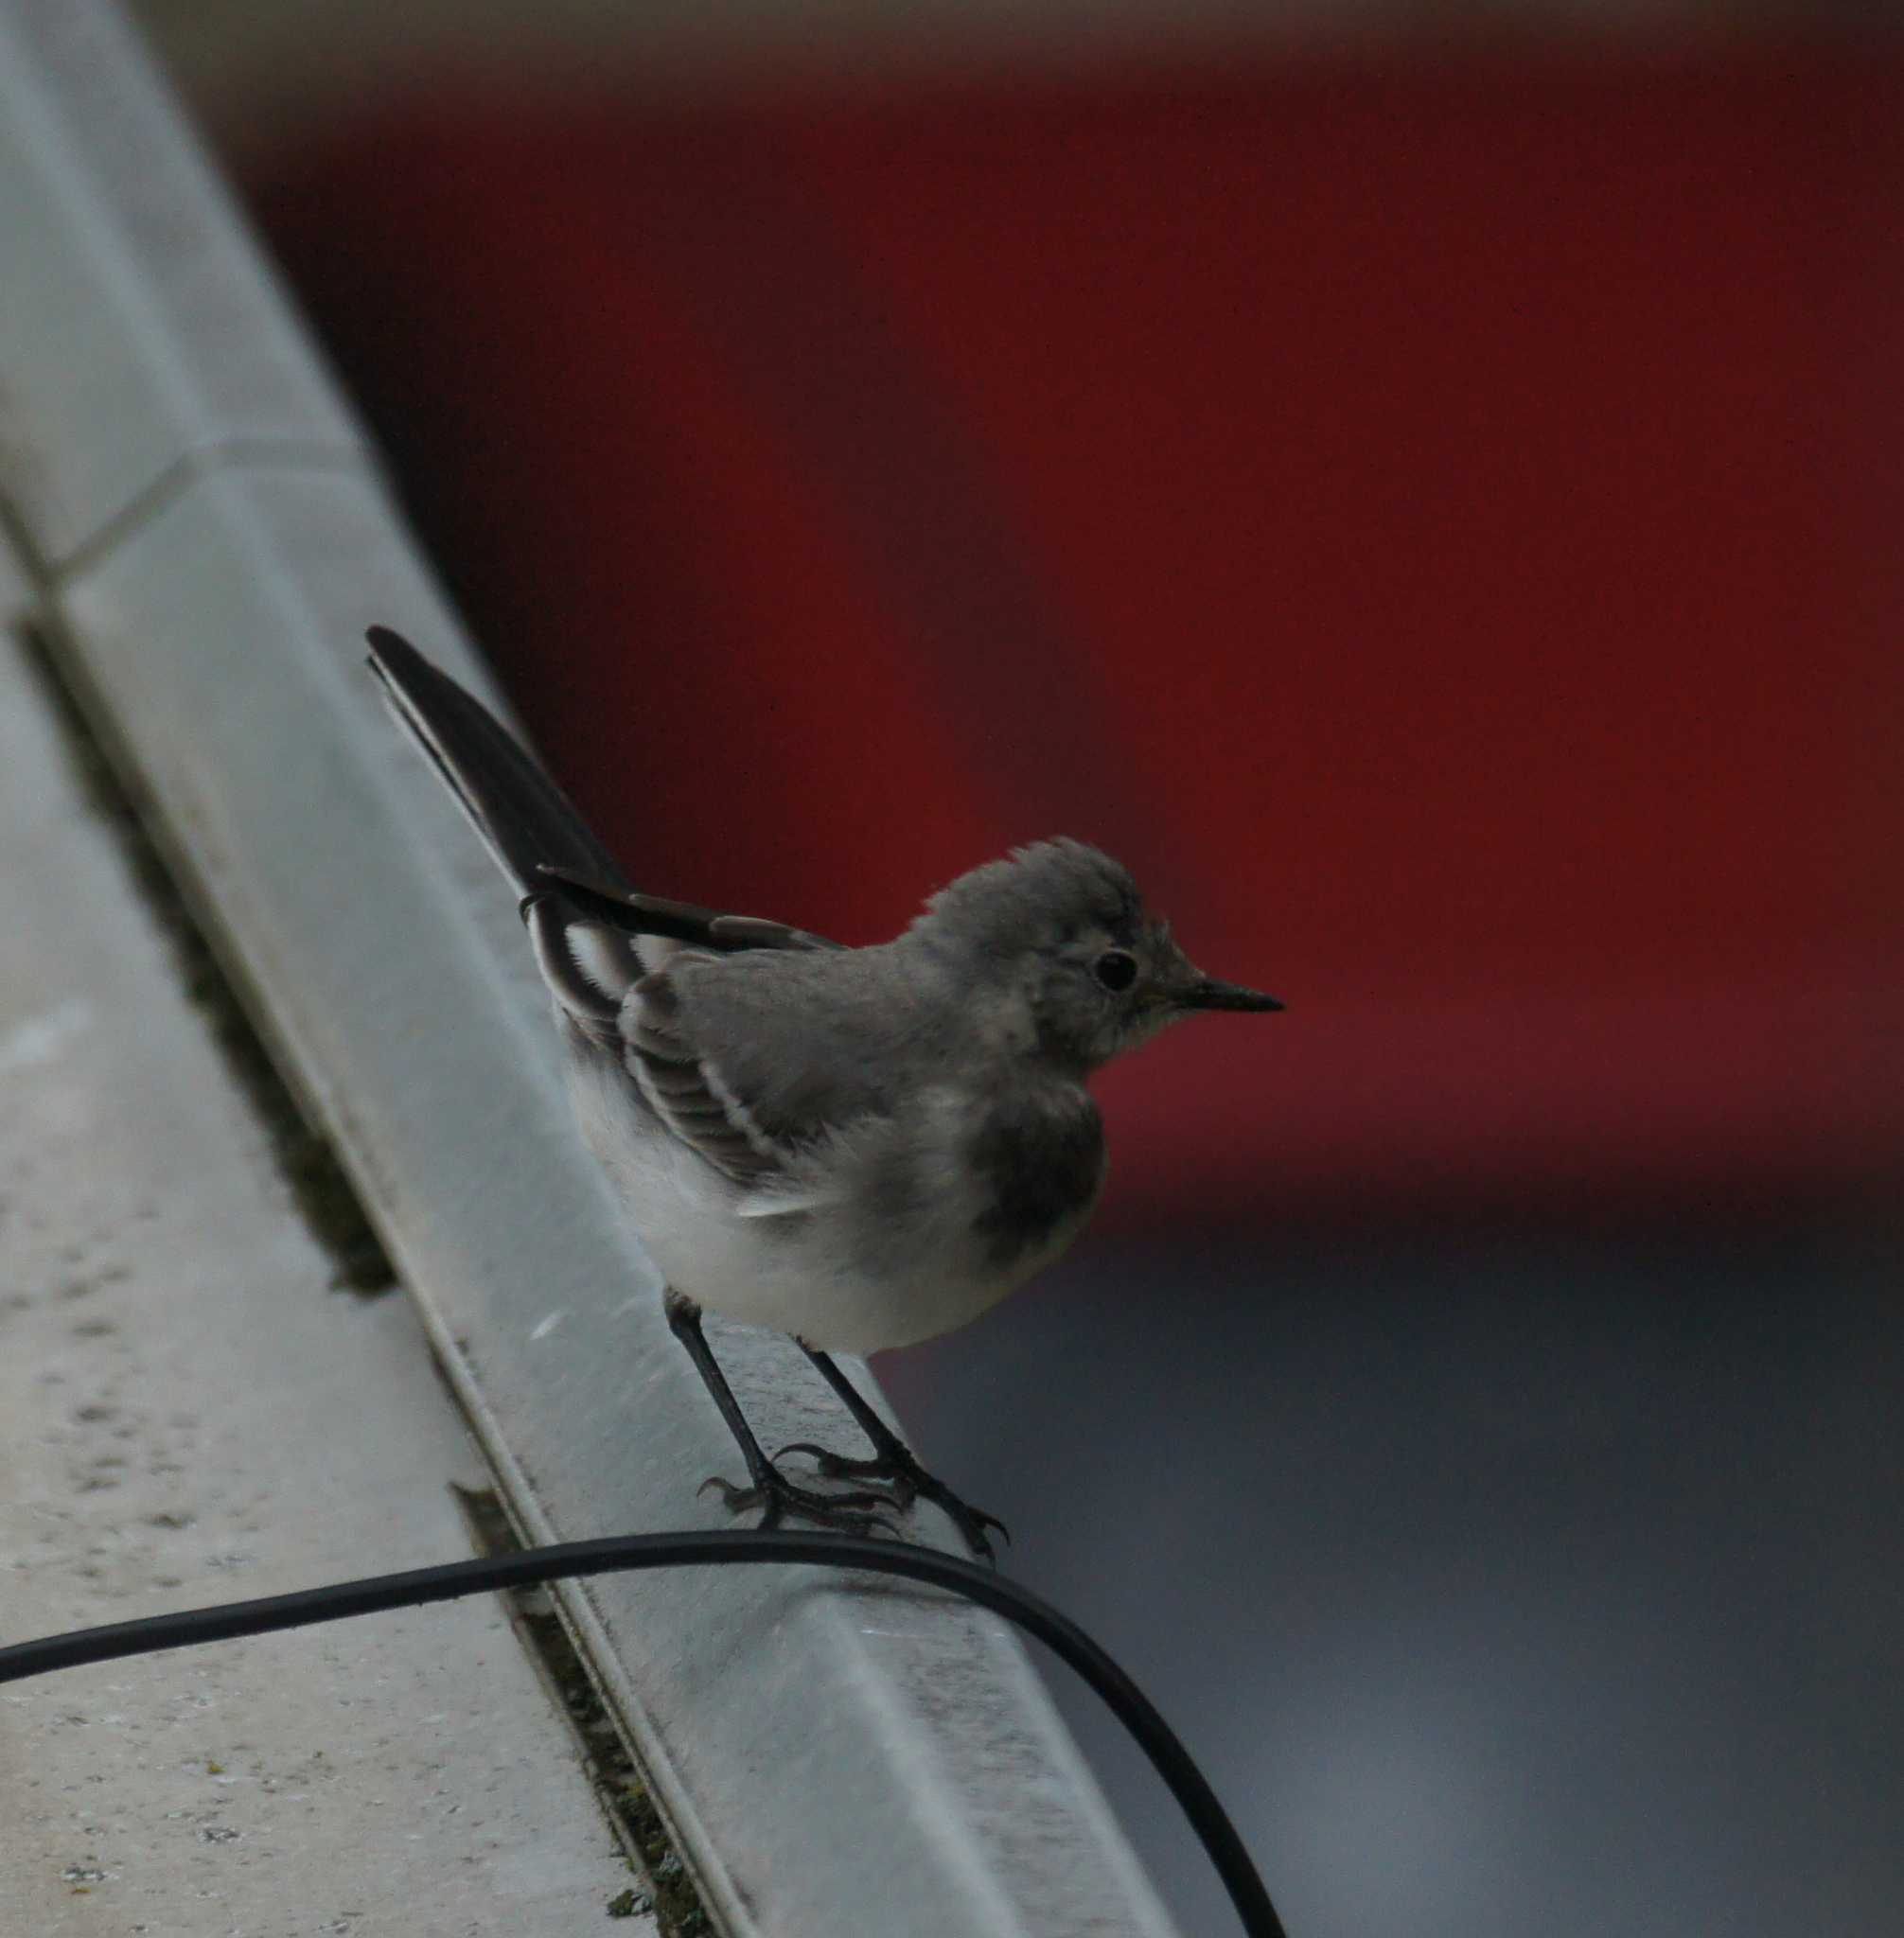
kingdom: Animalia
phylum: Chordata
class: Aves
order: Passeriformes
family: Motacillidae
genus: Motacilla
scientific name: Motacilla alba
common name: White wagtail
